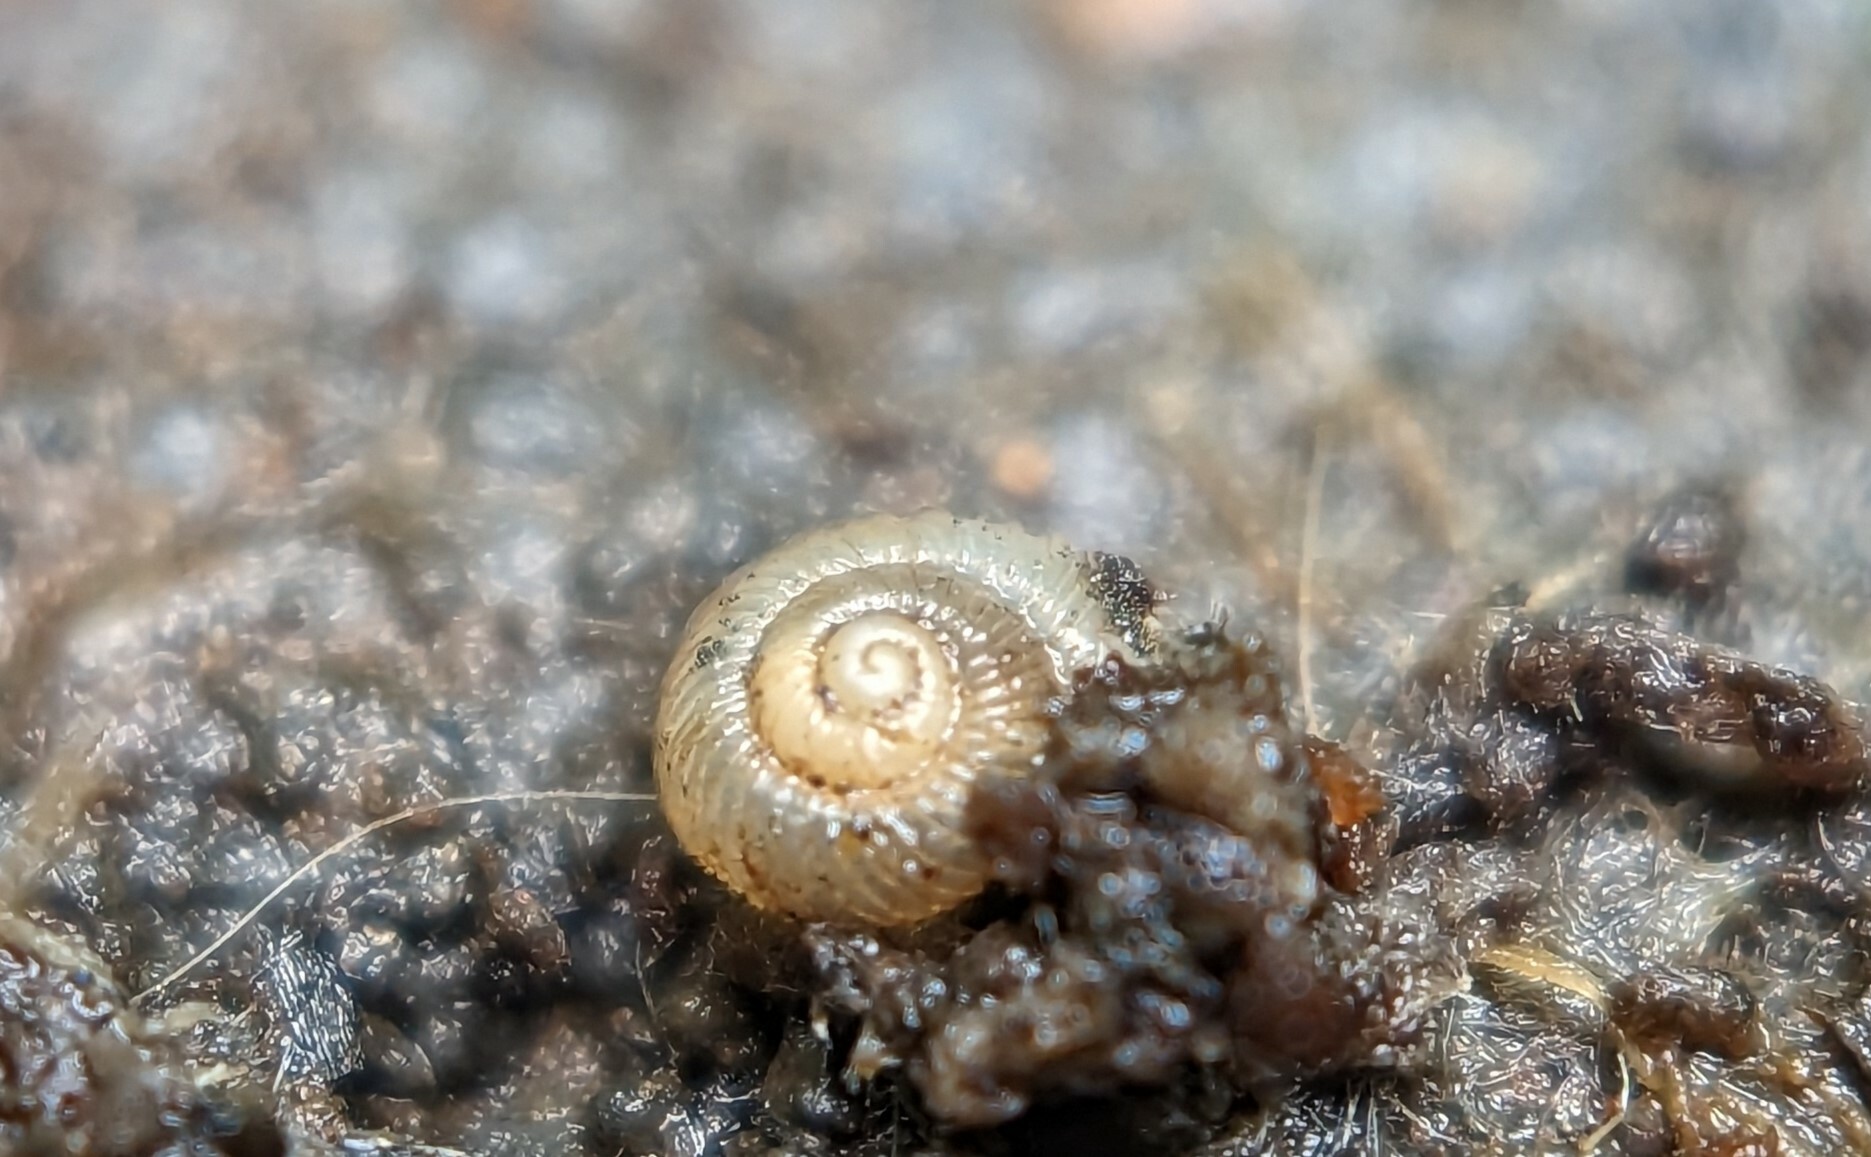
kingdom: Animalia
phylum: Mollusca
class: Gastropoda
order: Stylommatophora
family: Valloniidae
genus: Vallonia
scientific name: Vallonia costata
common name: Ribbed grass snail
